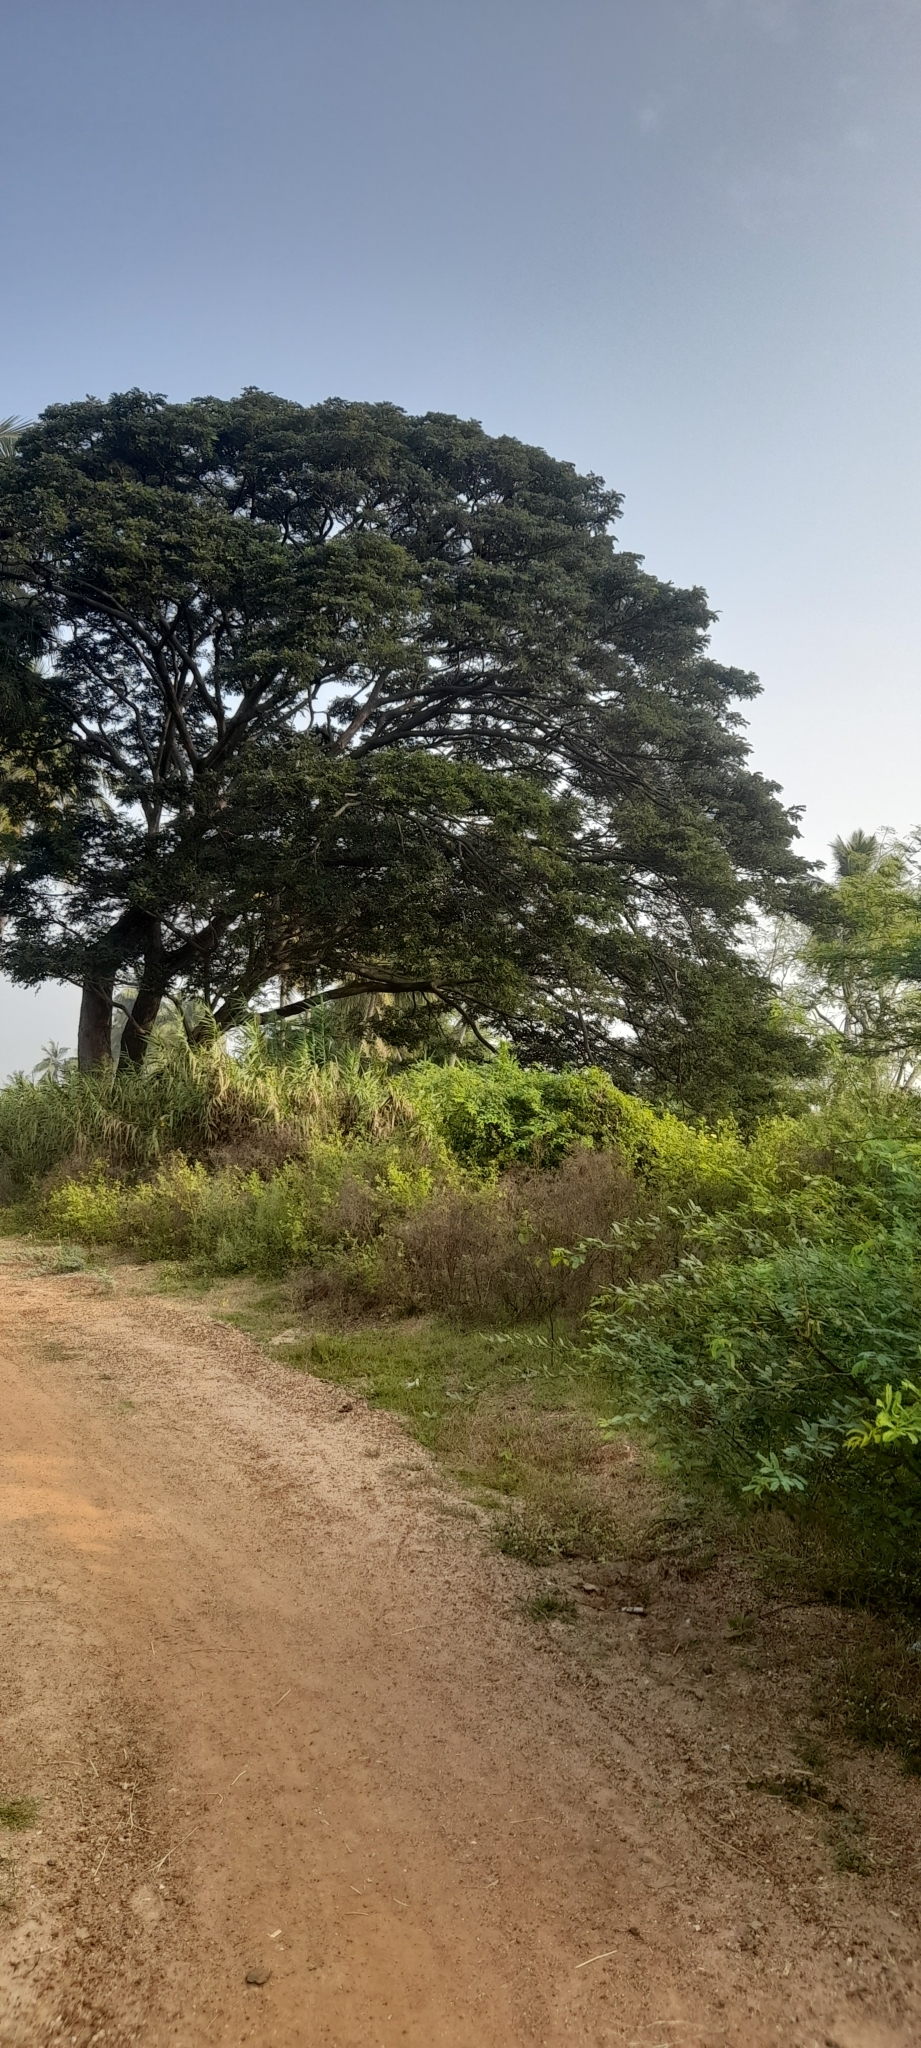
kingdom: Plantae
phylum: Tracheophyta
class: Magnoliopsida
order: Fabales
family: Fabaceae
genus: Samanea
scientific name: Samanea saman
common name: Raintree
